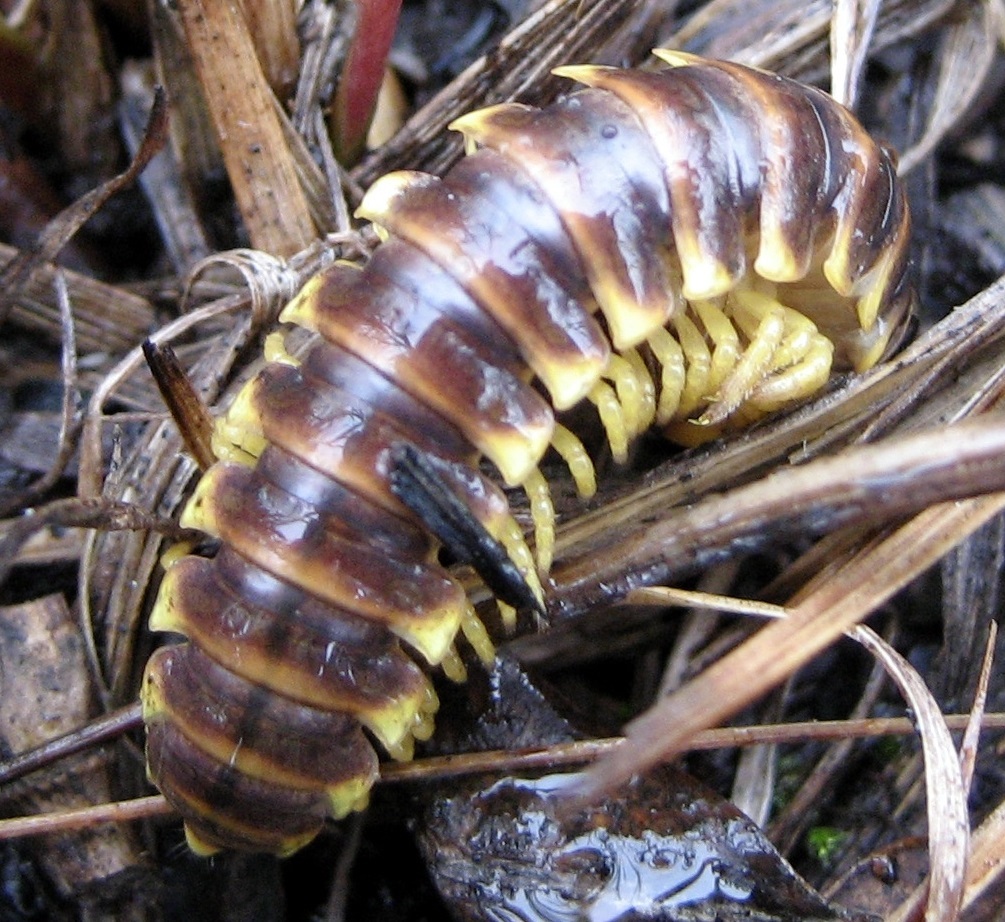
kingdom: Animalia
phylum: Arthropoda
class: Diplopoda
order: Polydesmida
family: Xystodesmidae
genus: Apheloria
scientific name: Apheloria virginiensis
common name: Black-and-gold flat millipede
